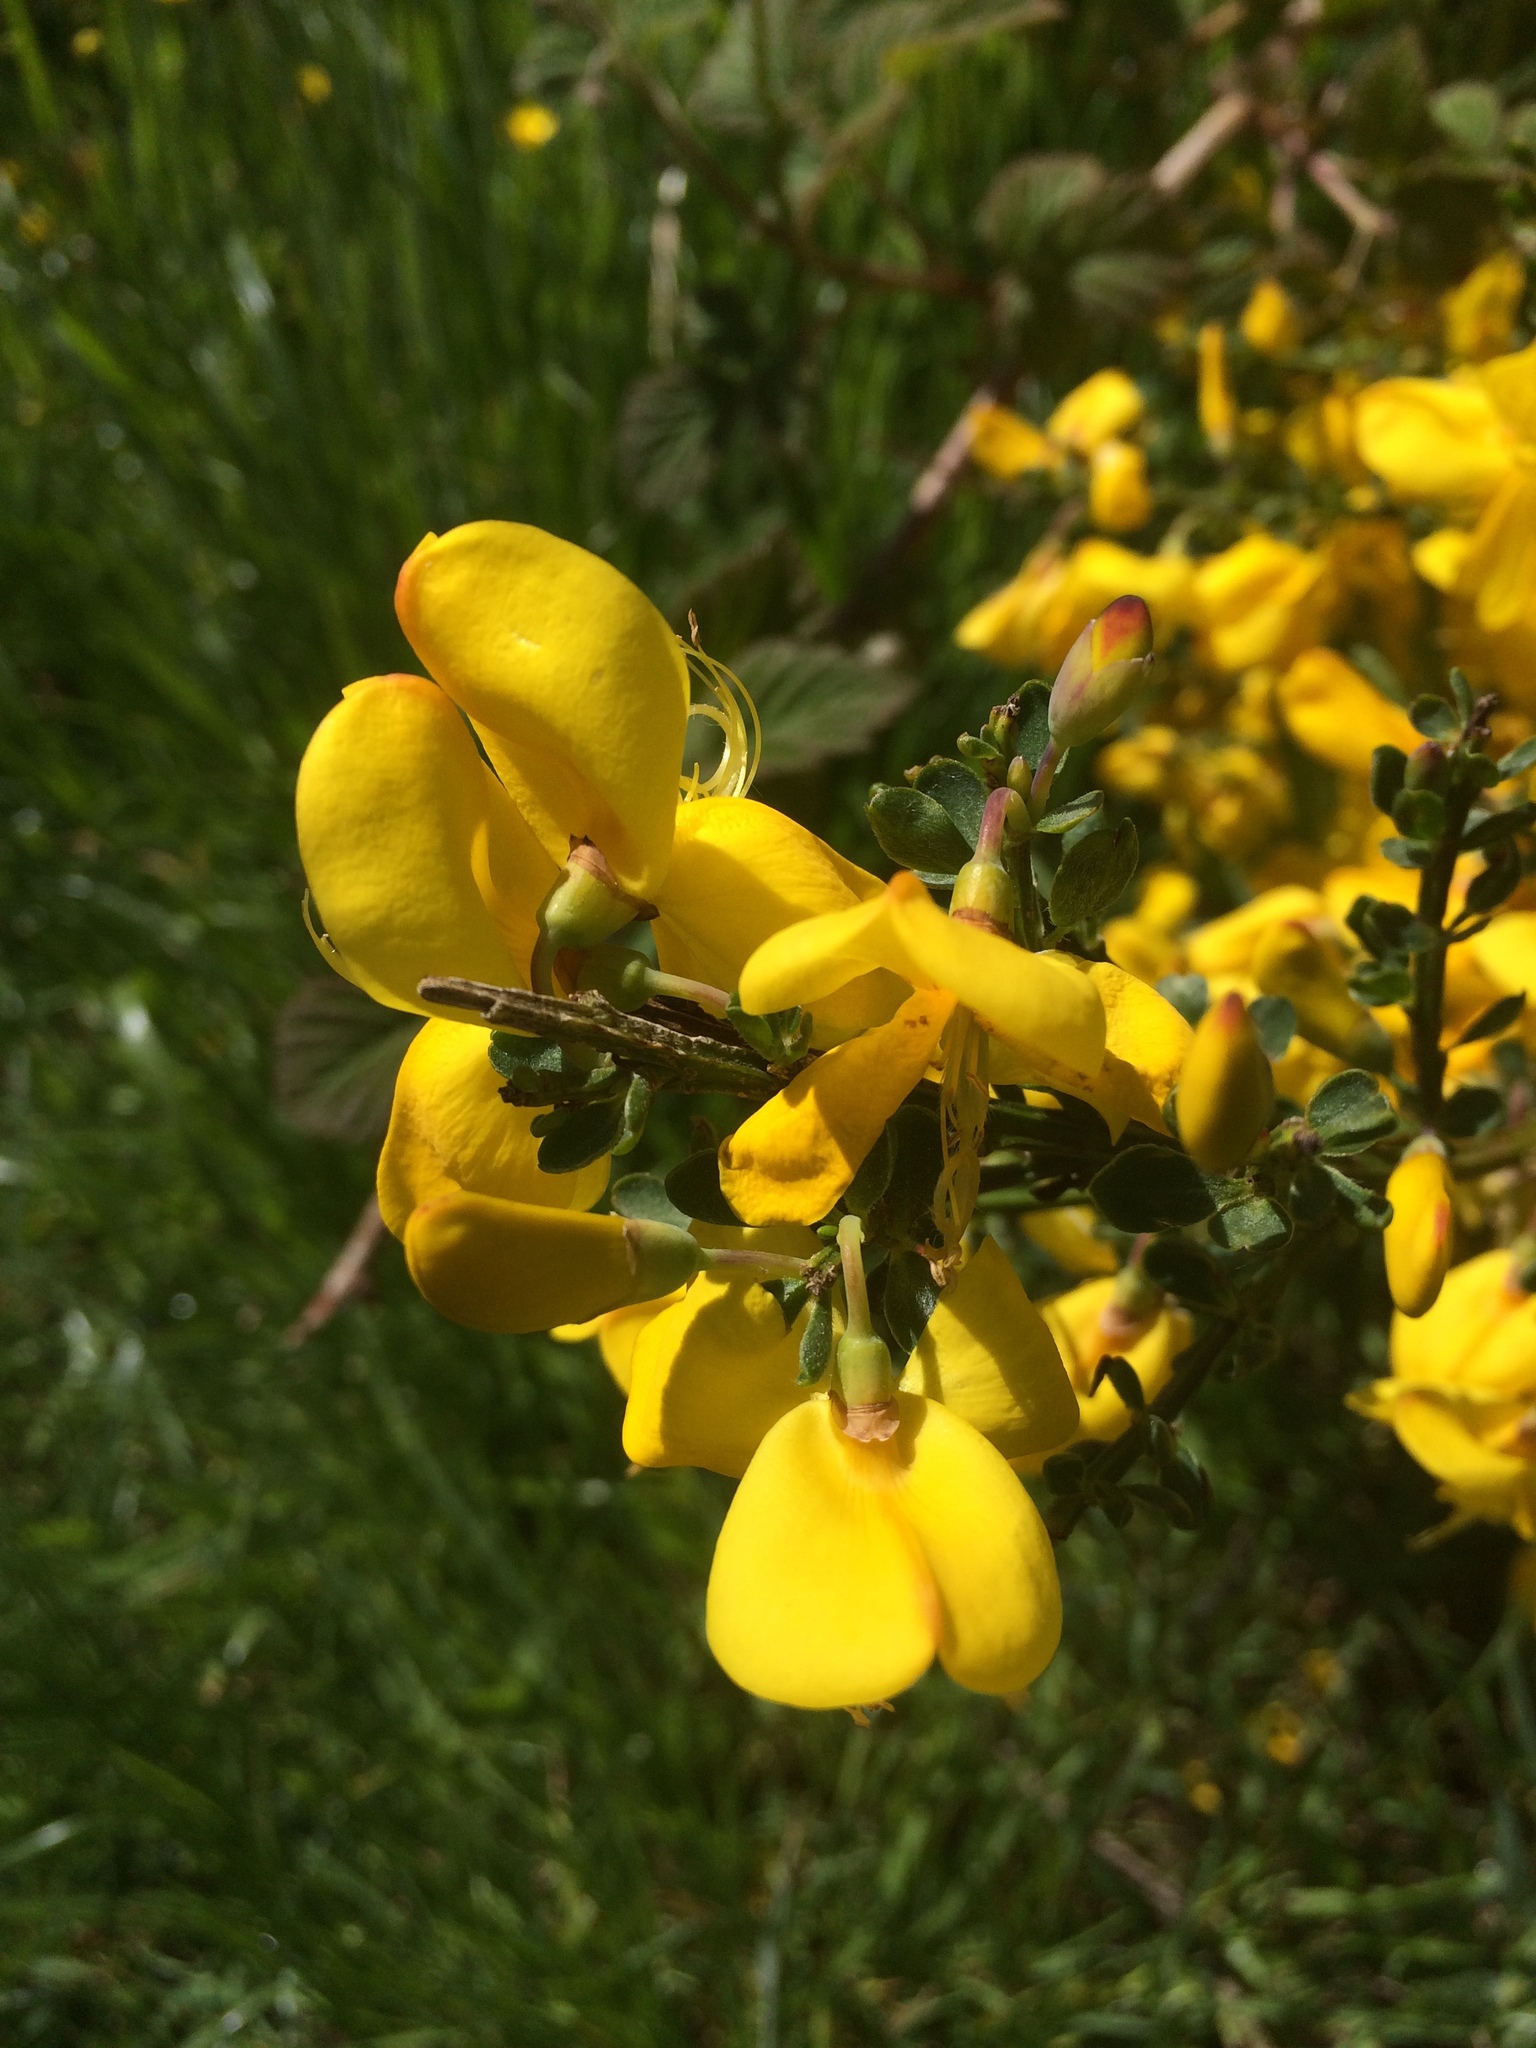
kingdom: Plantae
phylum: Tracheophyta
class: Magnoliopsida
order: Fabales
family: Fabaceae
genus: Cytisus
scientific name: Cytisus scoparius
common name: Scotch broom
